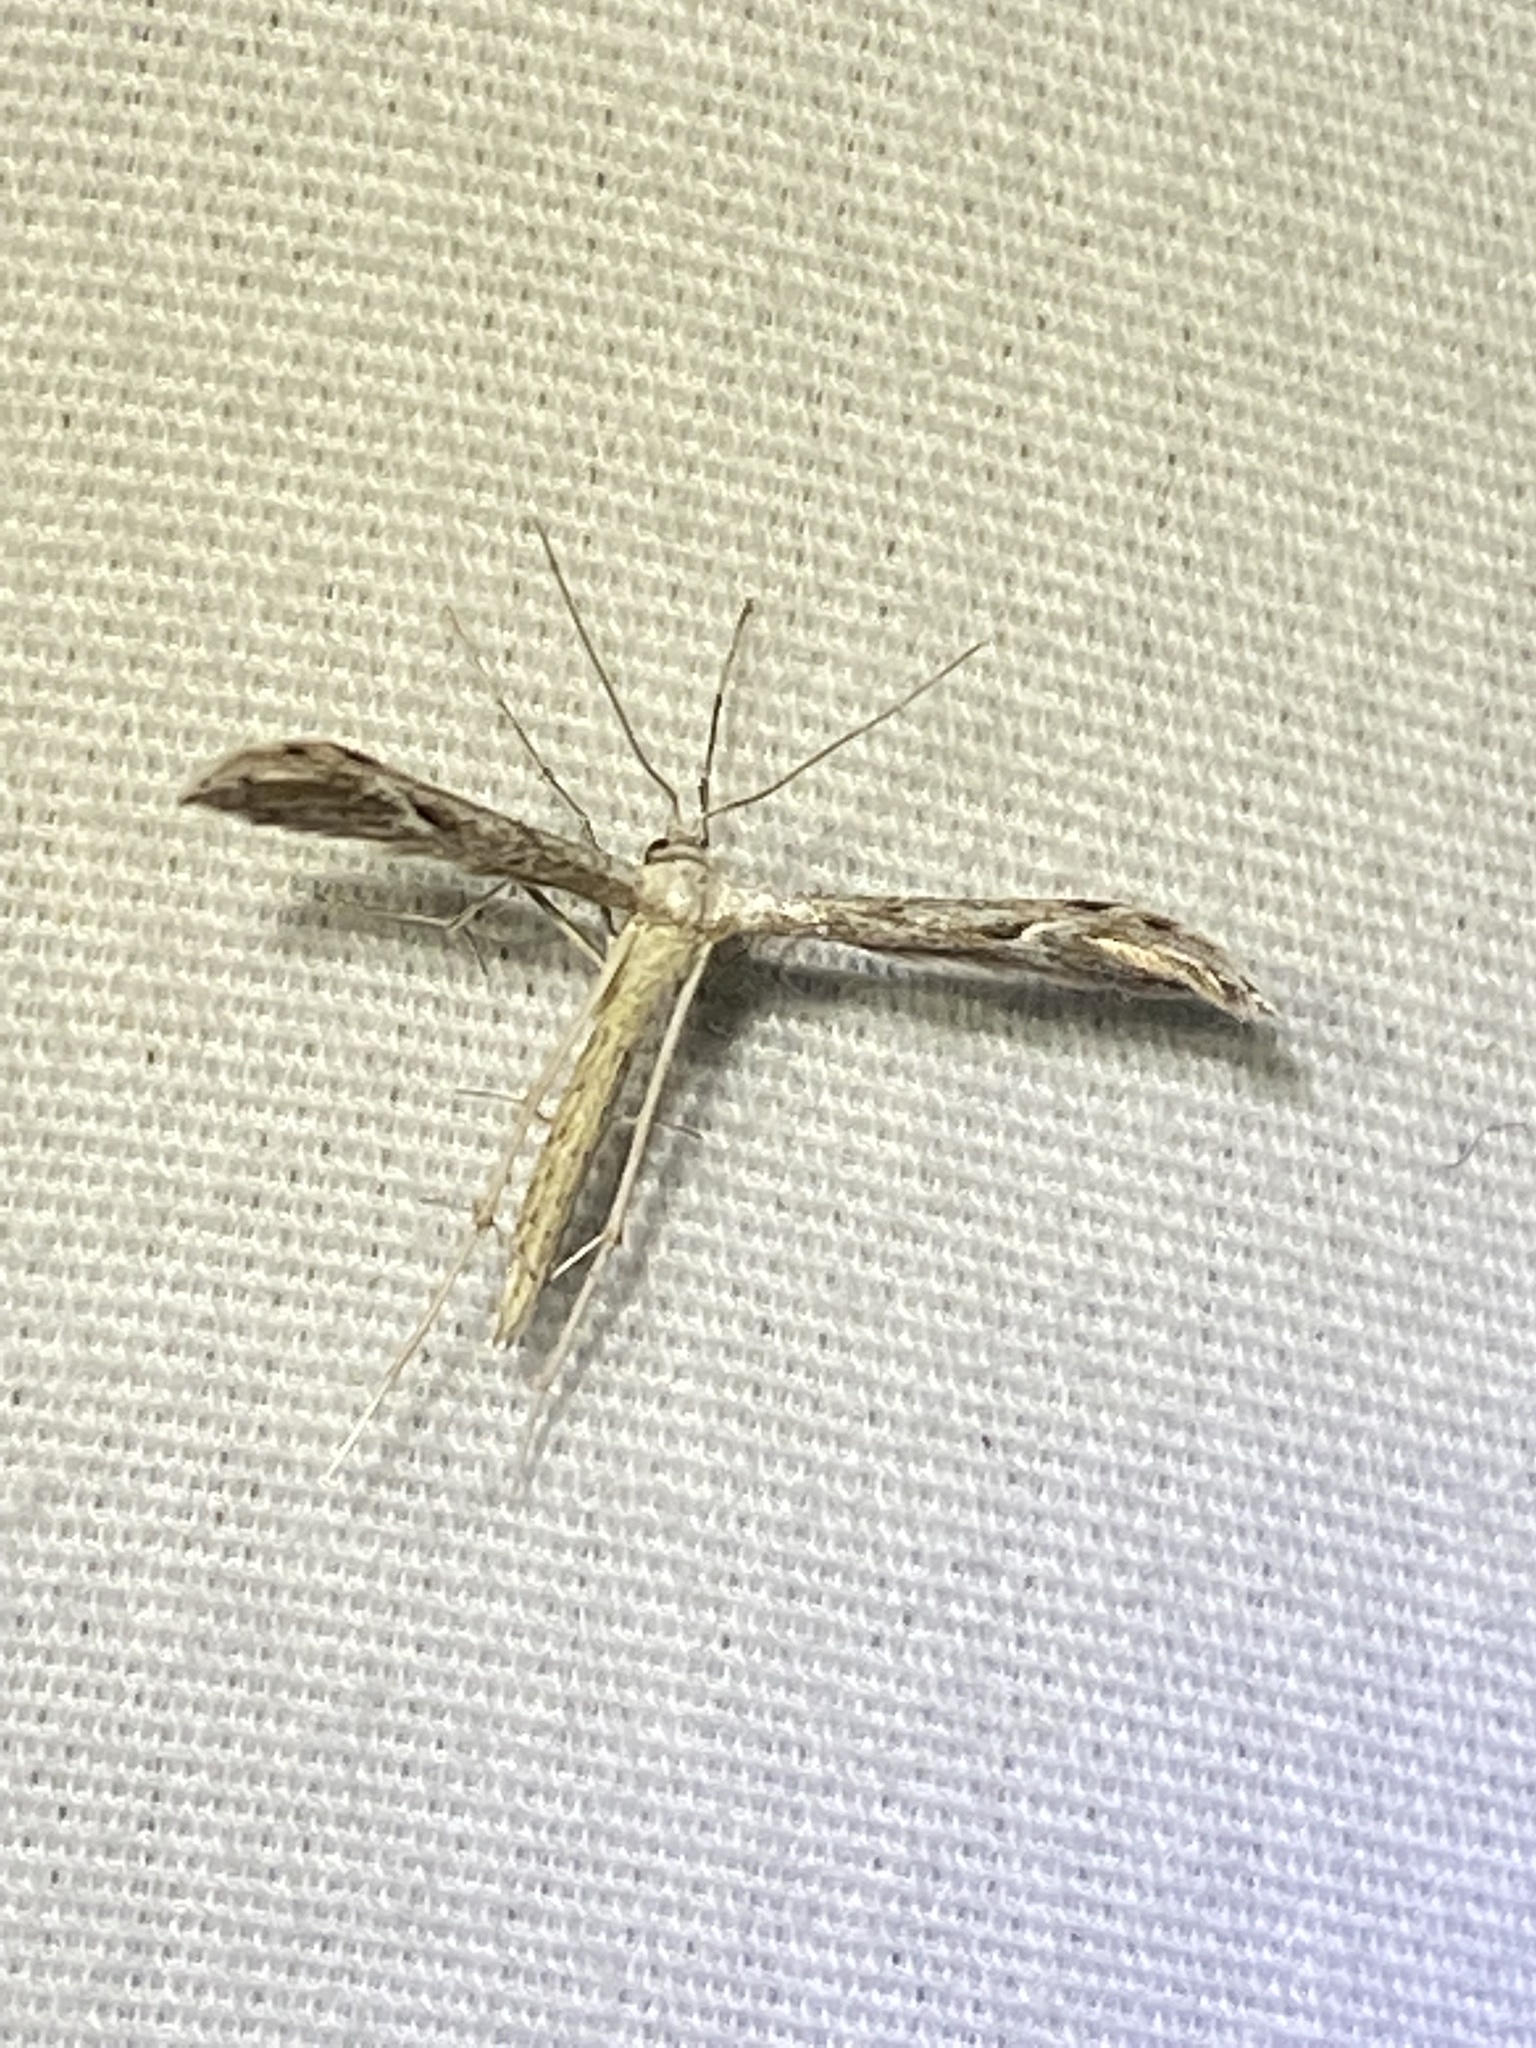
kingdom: Animalia
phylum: Arthropoda
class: Insecta
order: Lepidoptera
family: Pterophoridae
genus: Pselnophorus
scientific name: Pselnophorus belfragei
